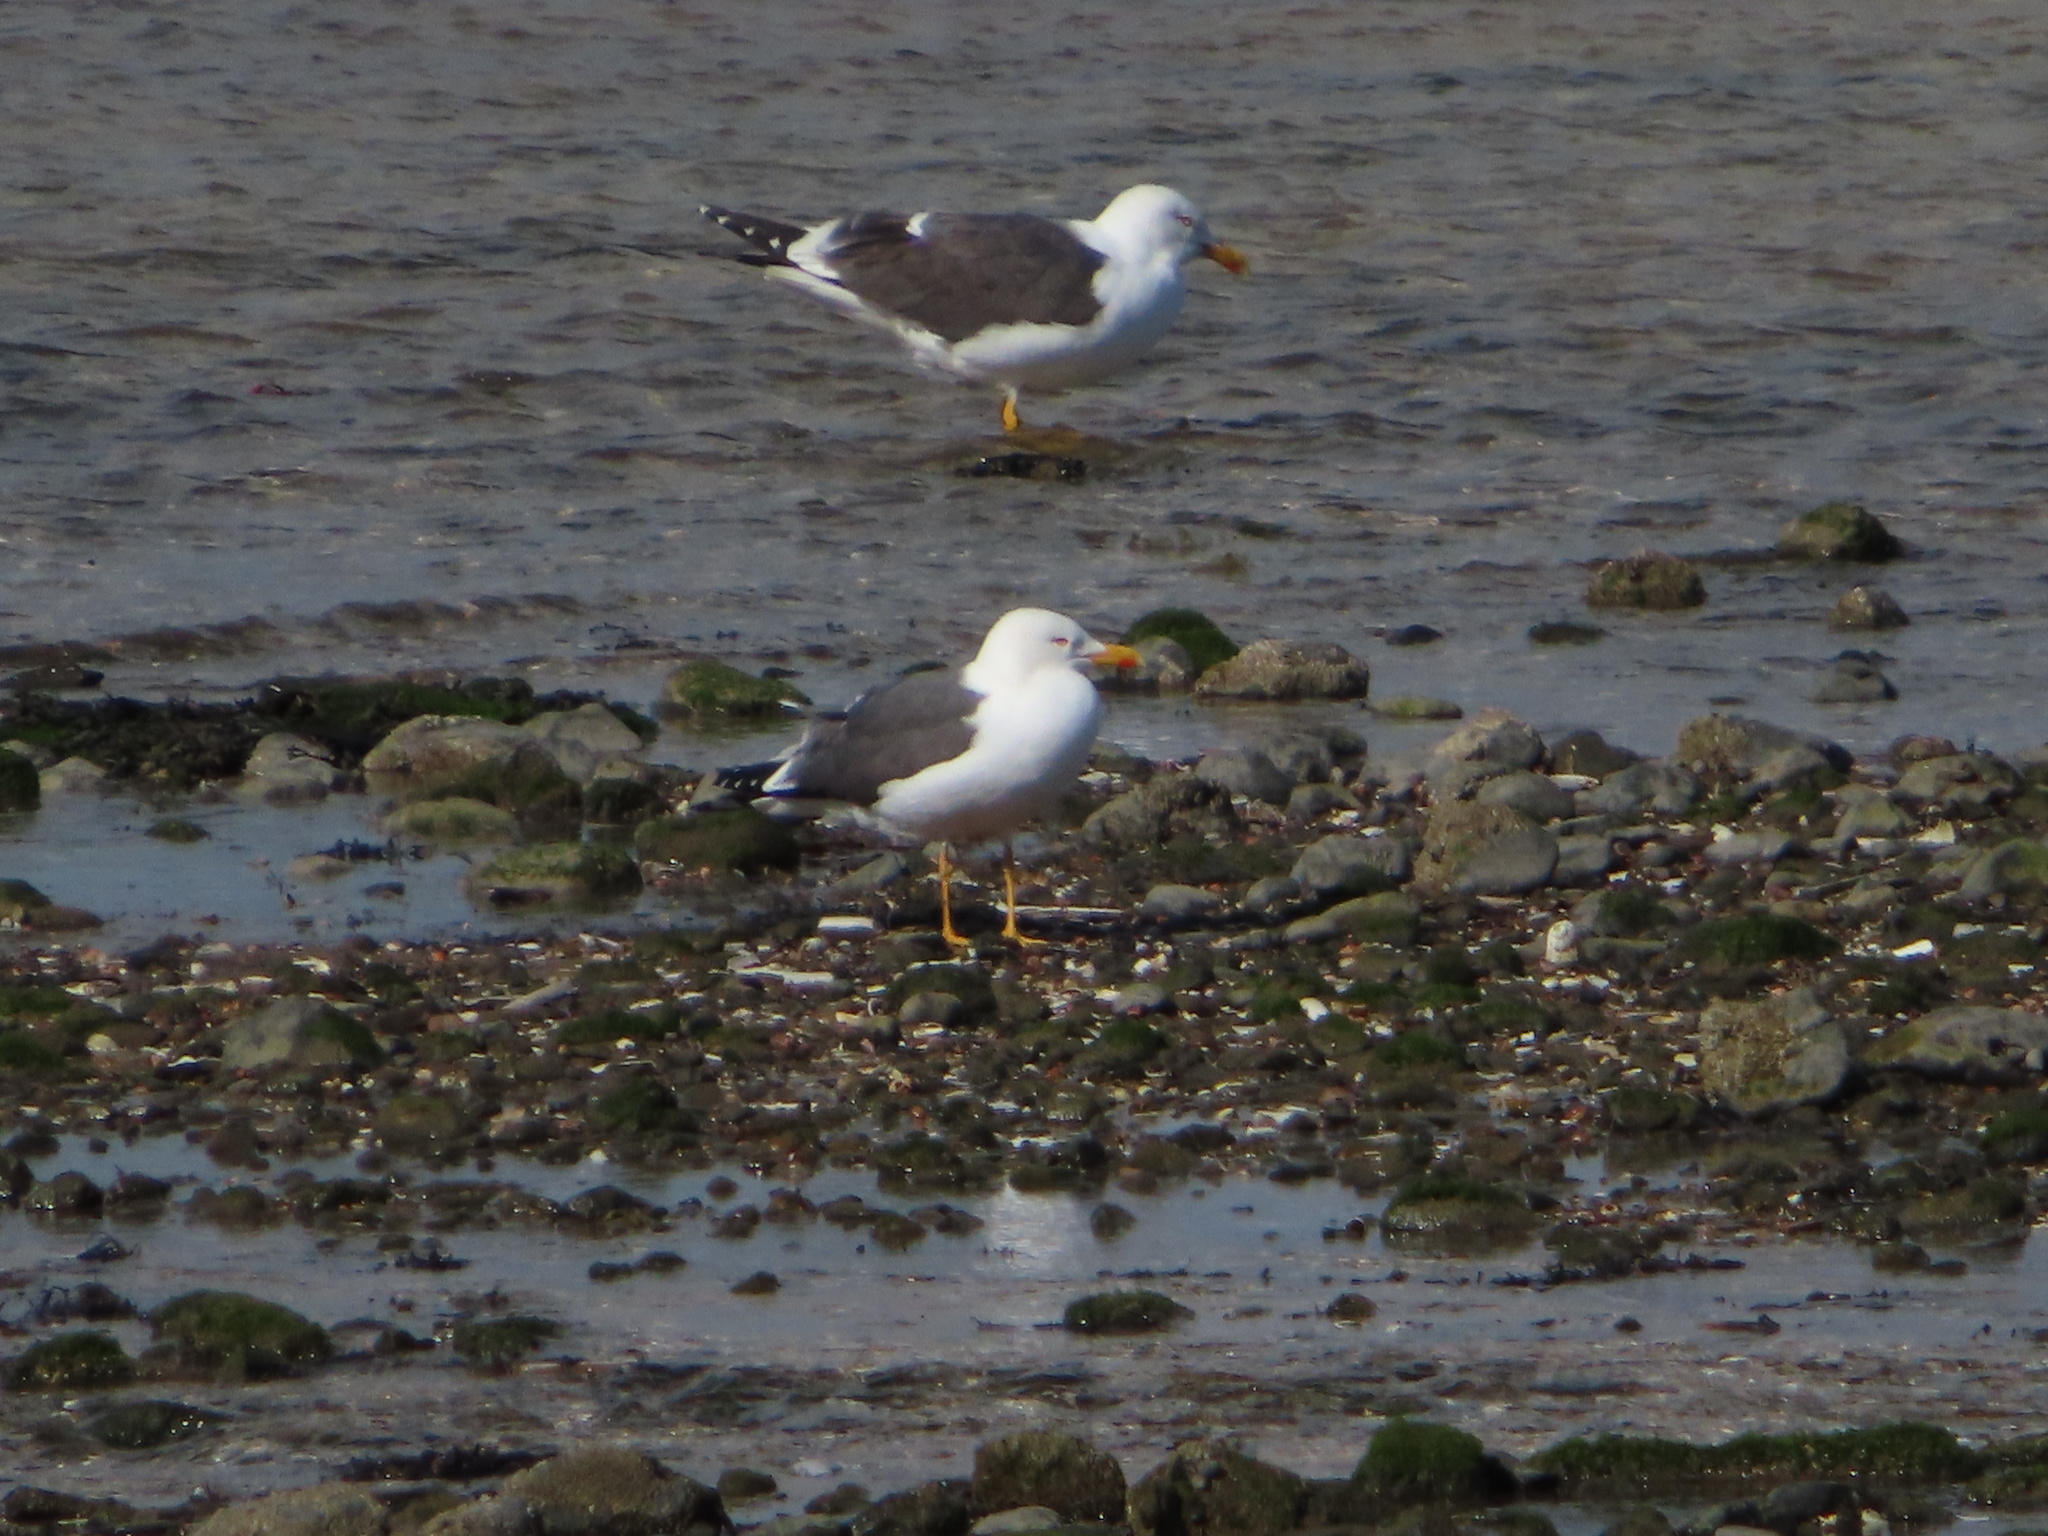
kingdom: Animalia
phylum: Chordata
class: Aves
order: Charadriiformes
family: Laridae
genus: Larus
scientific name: Larus fuscus
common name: Lesser black-backed gull
